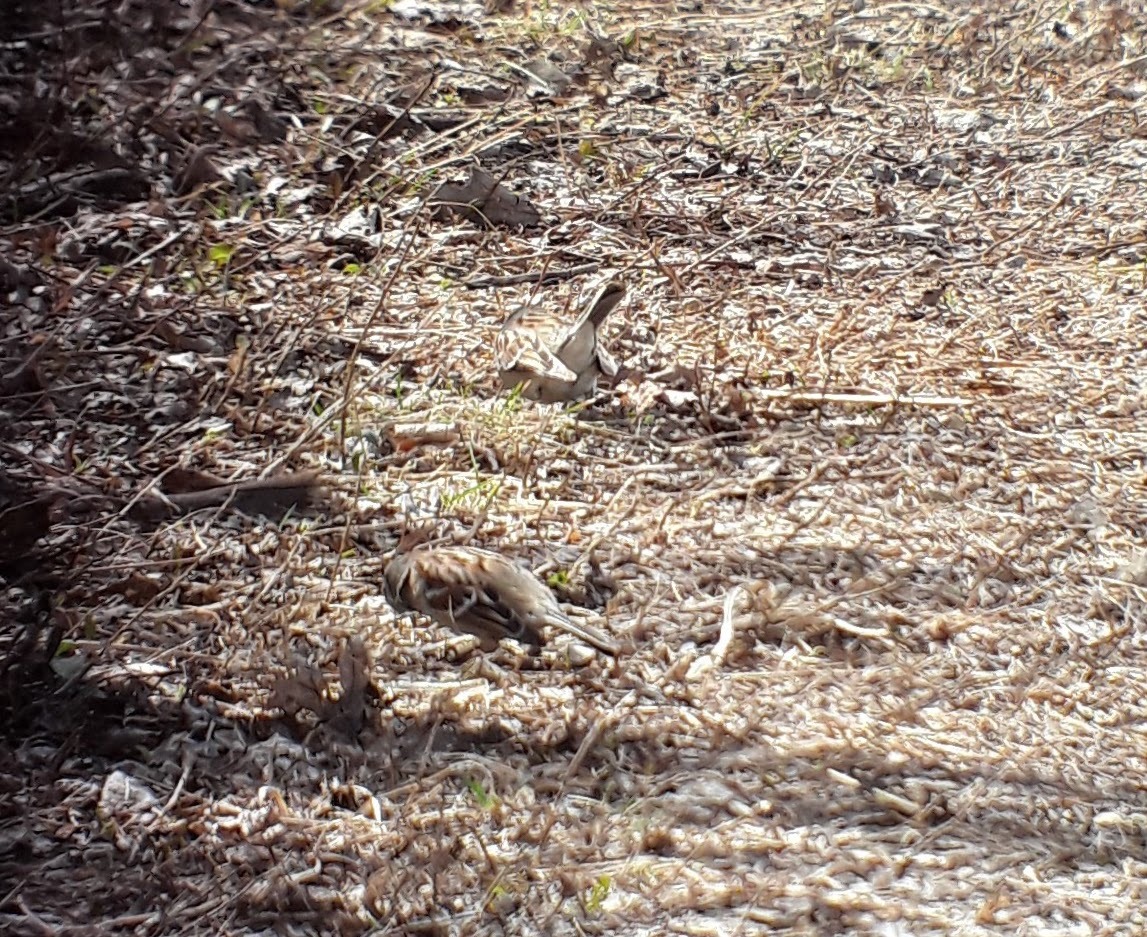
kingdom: Animalia
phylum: Chordata
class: Aves
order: Passeriformes
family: Passerellidae
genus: Spizelloides
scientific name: Spizelloides arborea
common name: American tree sparrow
